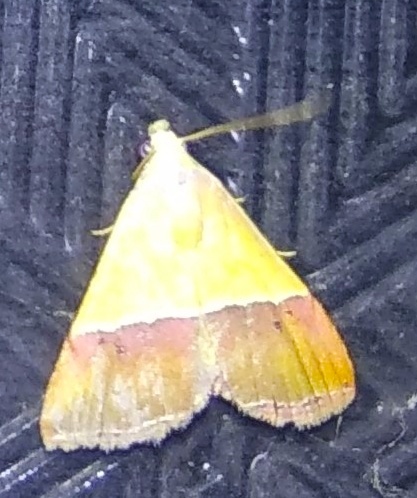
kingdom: Animalia
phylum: Arthropoda
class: Insecta
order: Lepidoptera
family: Noctuidae
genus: Eublemma
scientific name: Eublemma accedens
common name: Moth
